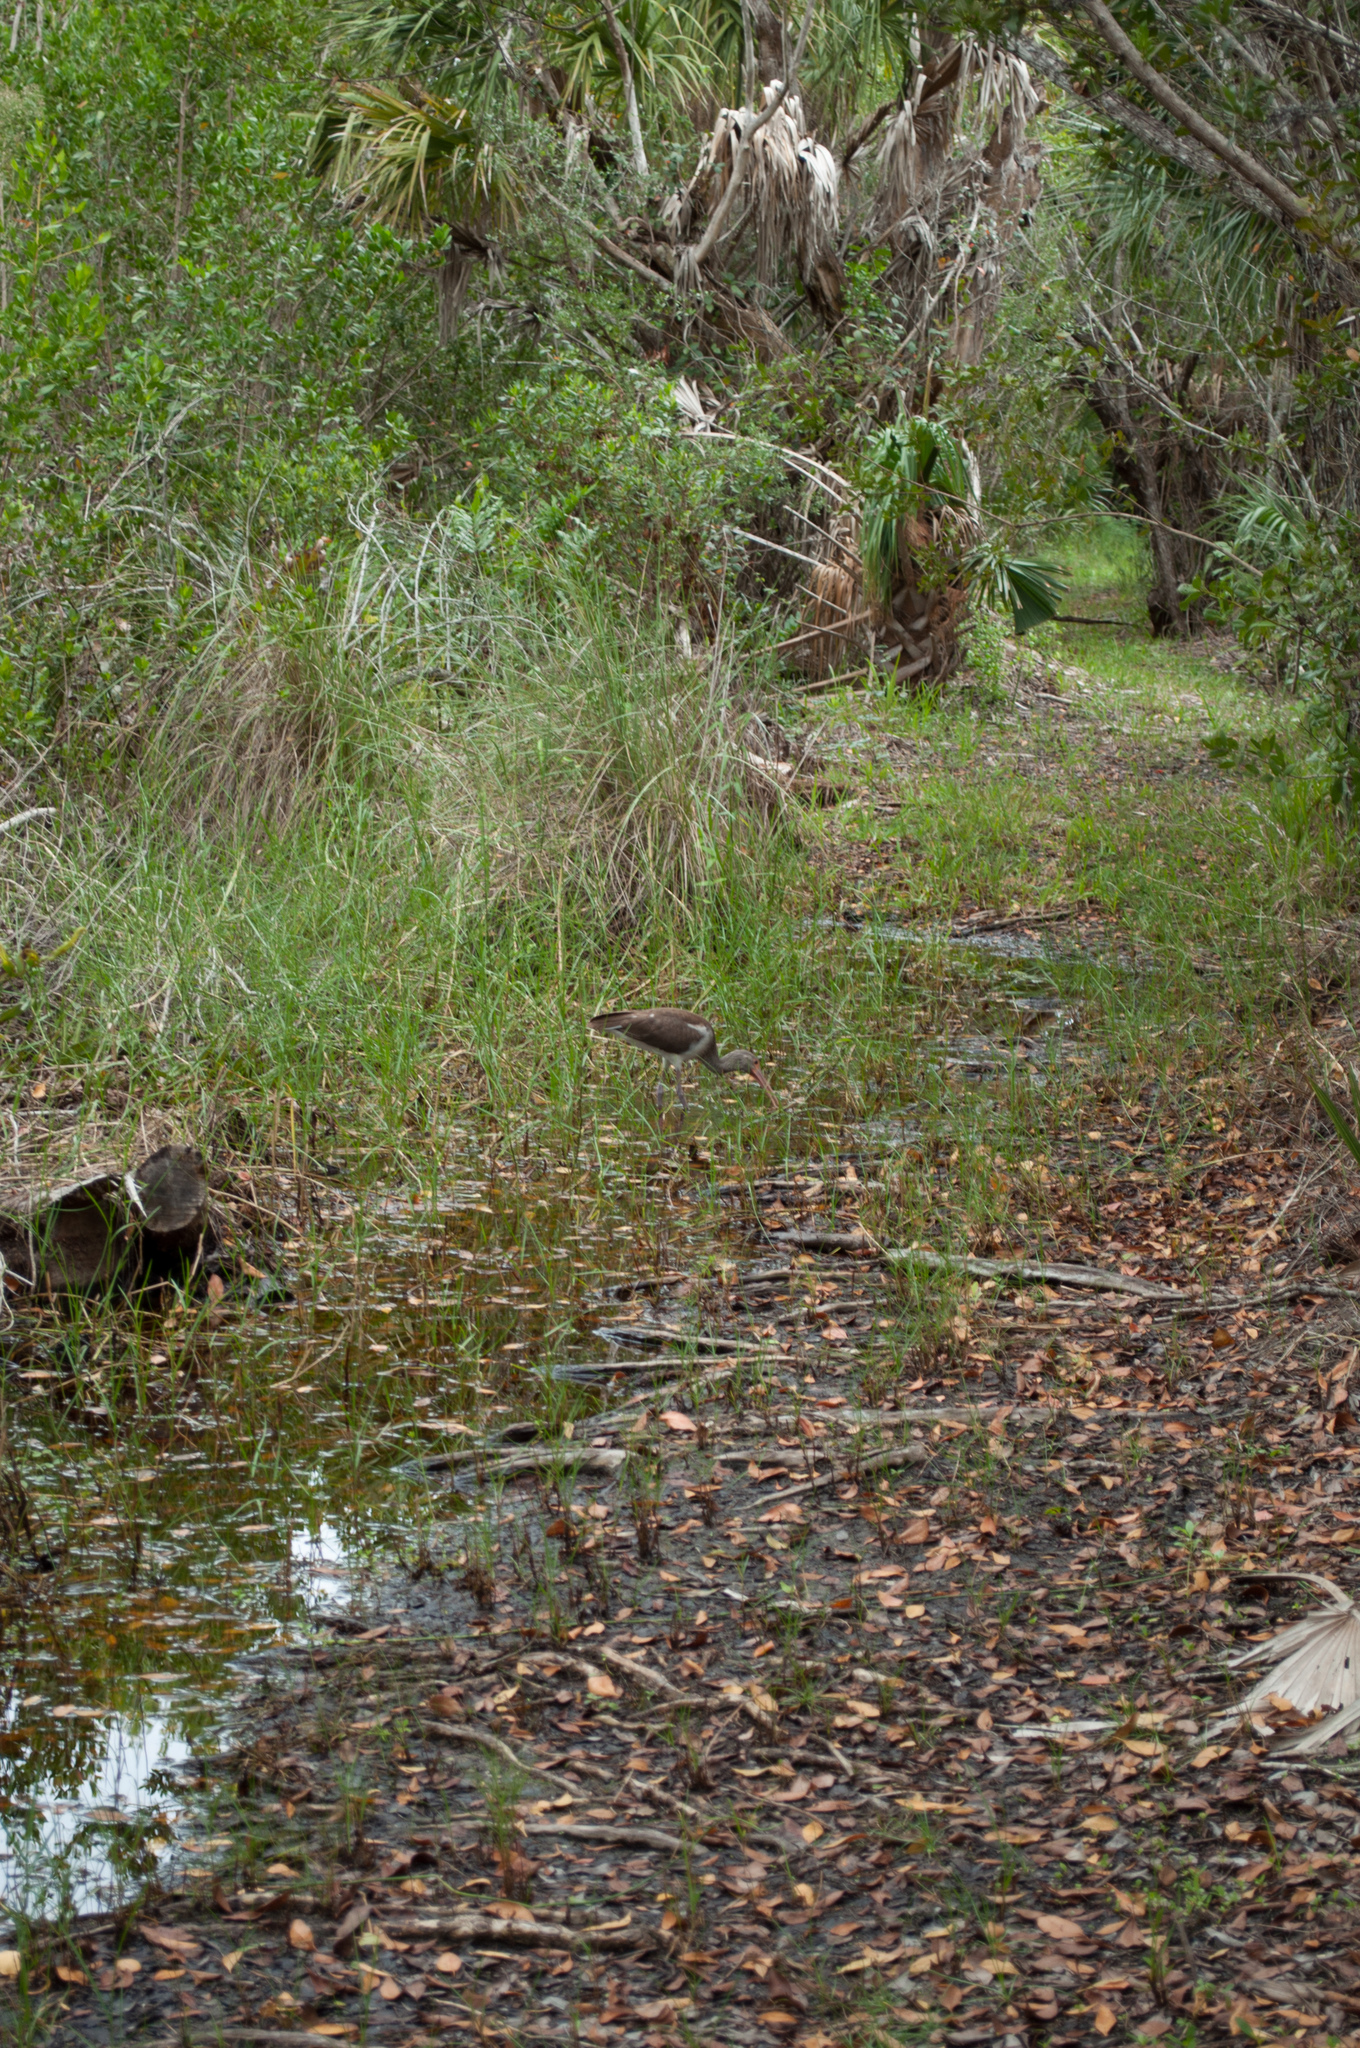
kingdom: Animalia
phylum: Chordata
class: Aves
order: Pelecaniformes
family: Threskiornithidae
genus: Eudocimus
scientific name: Eudocimus albus
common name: White ibis
